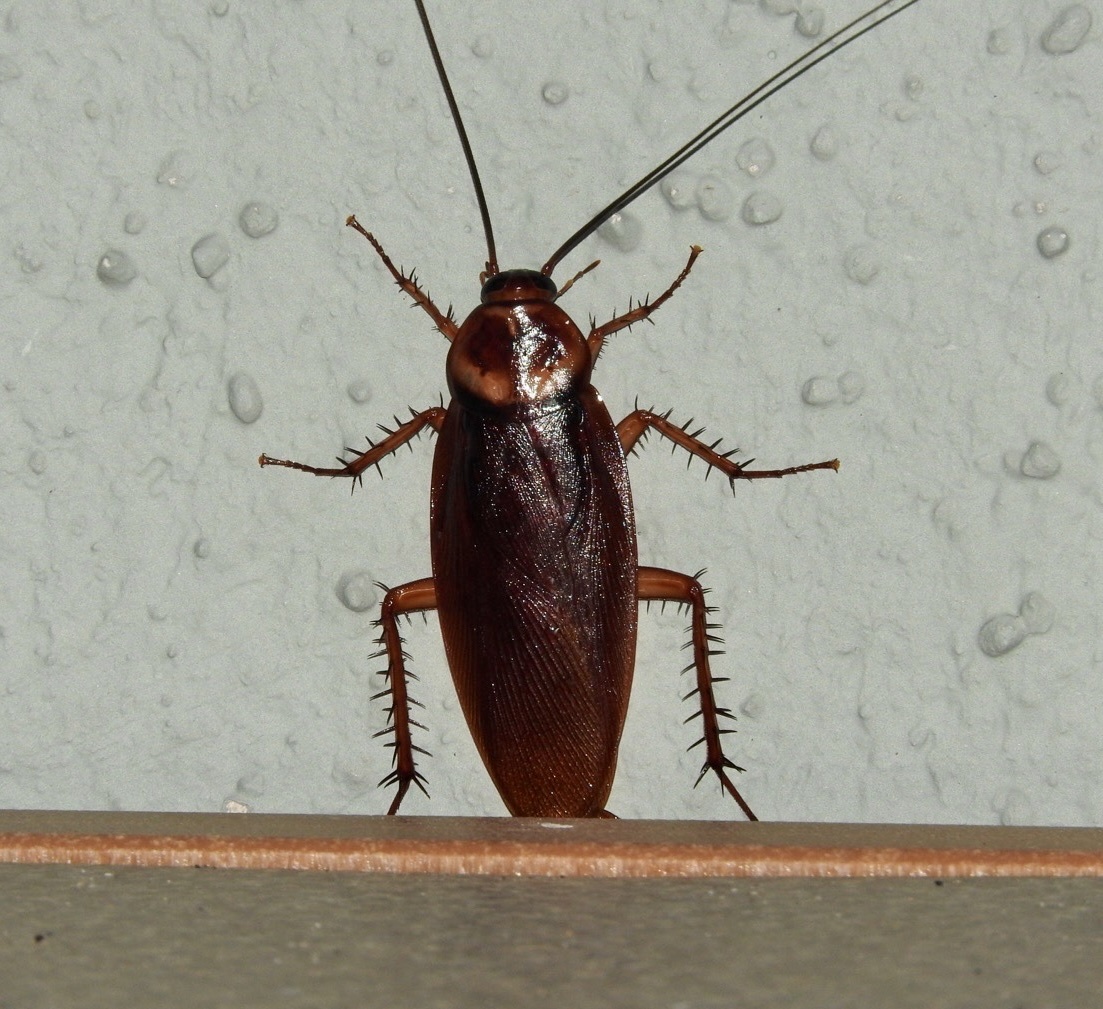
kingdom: Animalia
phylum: Arthropoda
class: Insecta
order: Blattodea
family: Blattidae
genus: Periplaneta
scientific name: Periplaneta americana
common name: American cockroach
